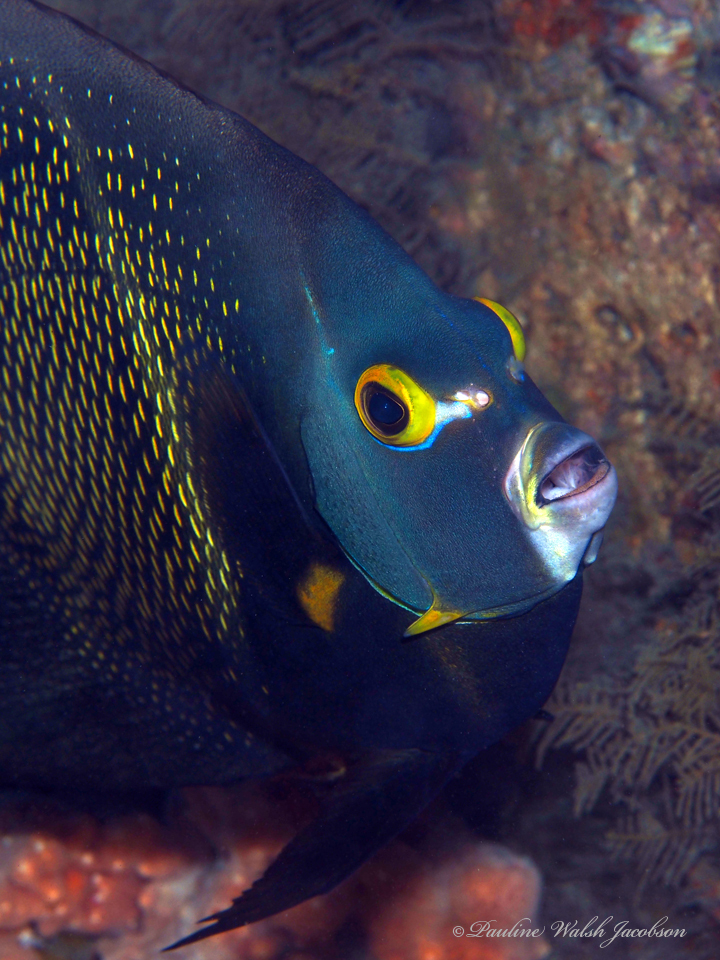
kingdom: Animalia
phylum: Chordata
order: Perciformes
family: Pomacanthidae
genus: Pomacanthus
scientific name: Pomacanthus paru
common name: French angelfish
